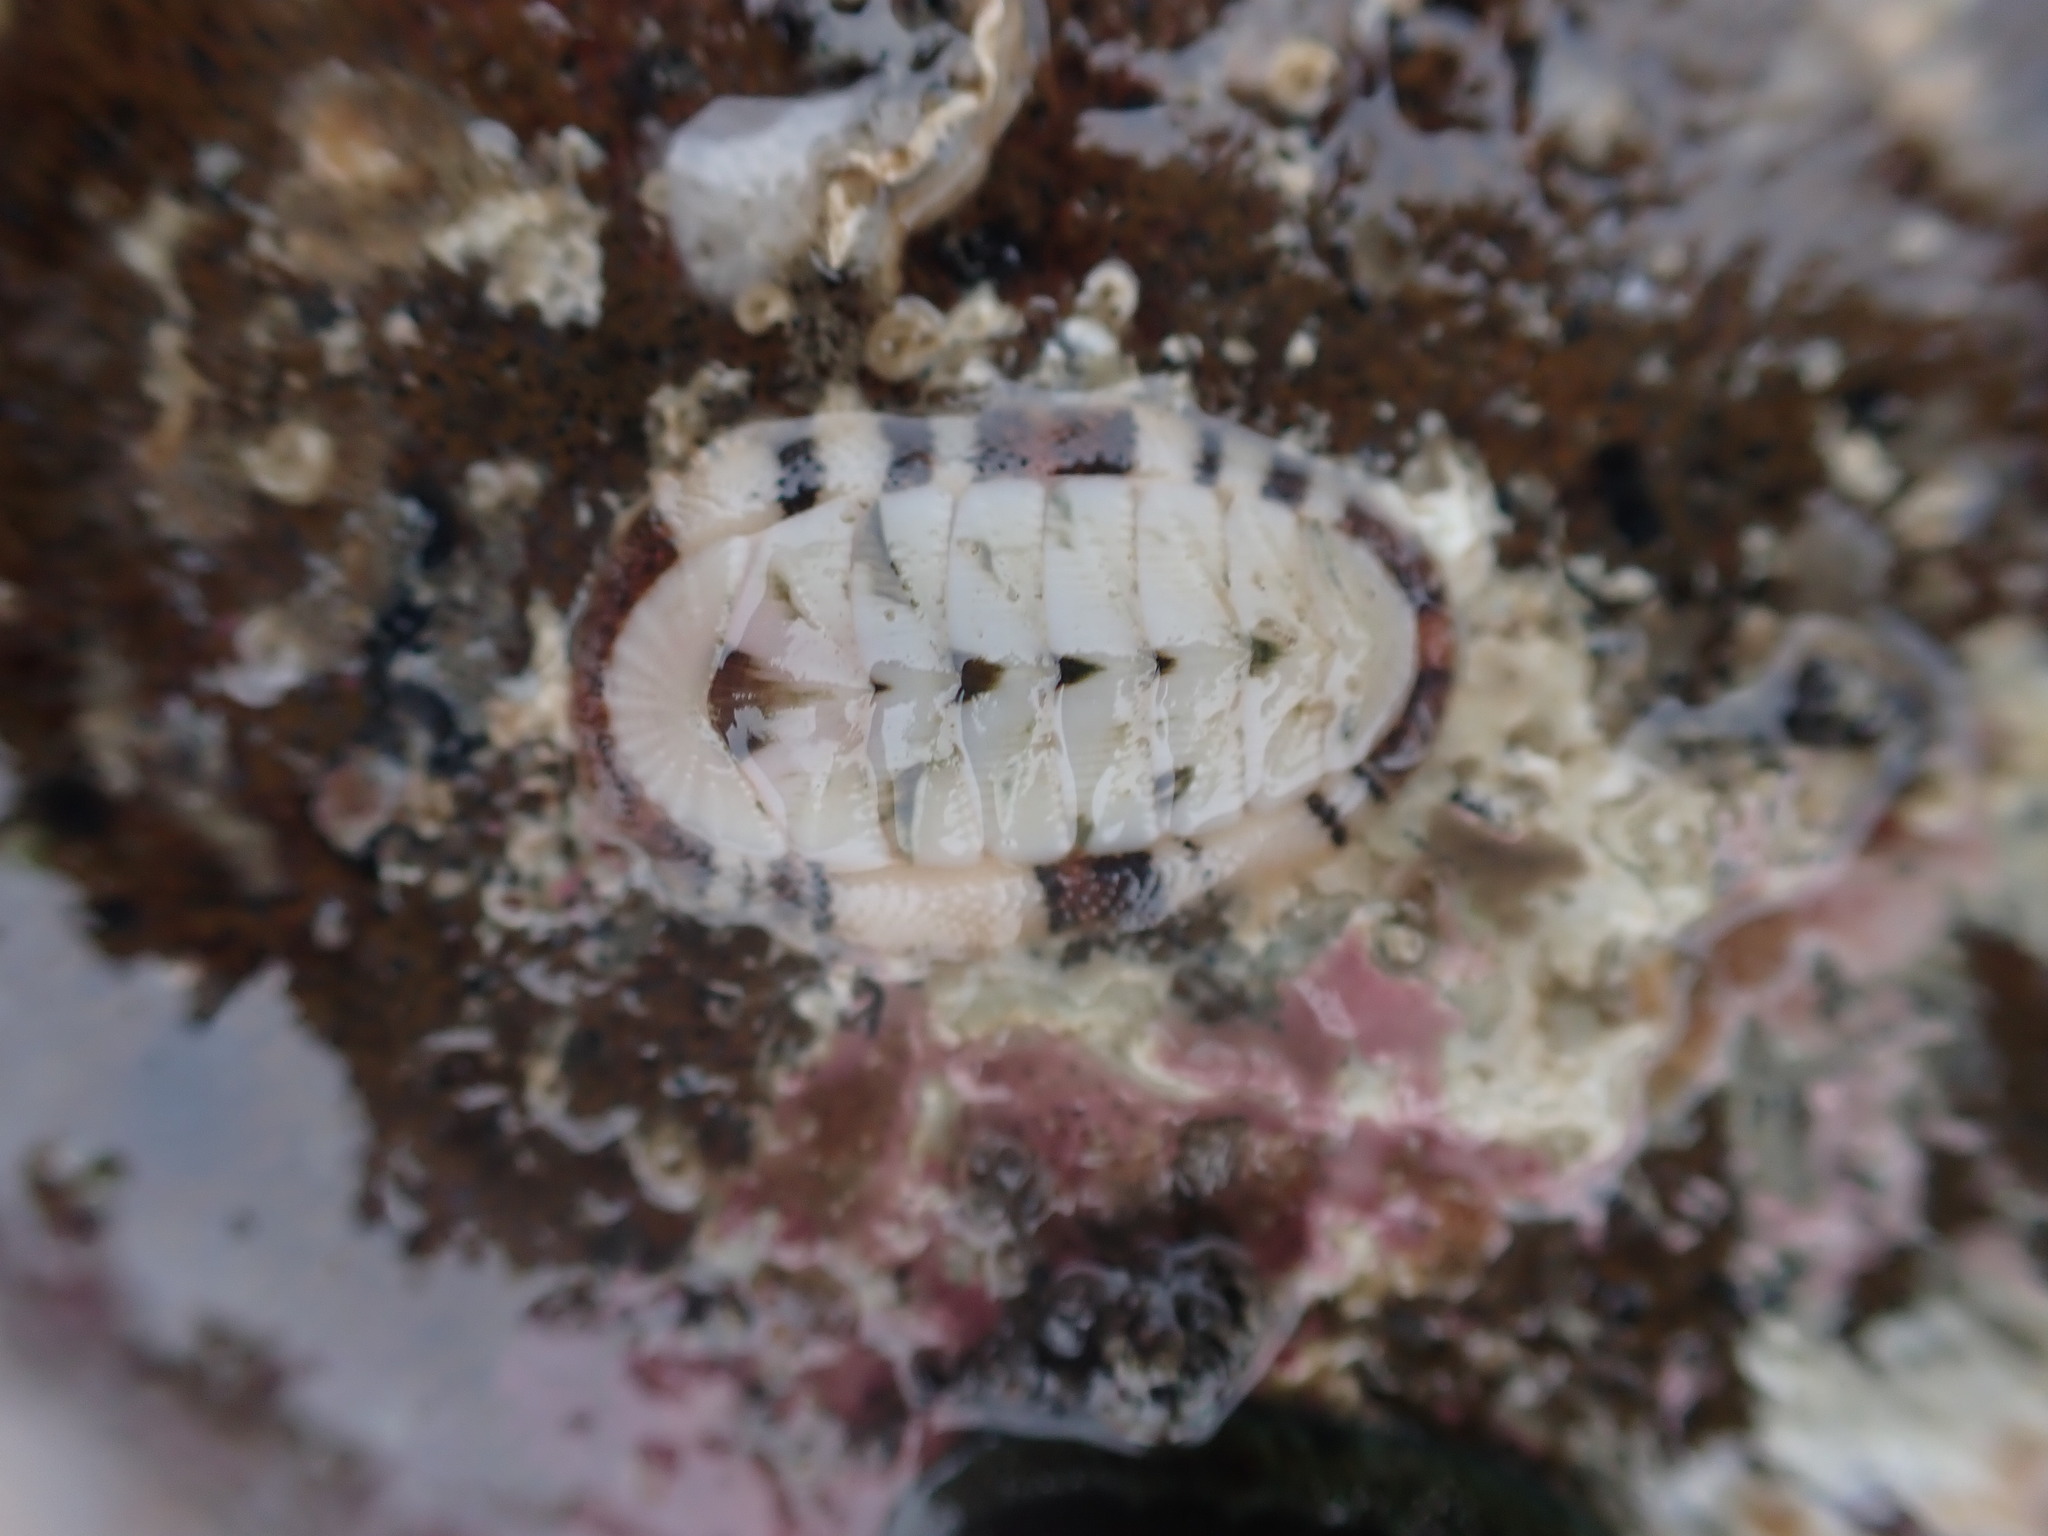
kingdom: Animalia
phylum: Mollusca
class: Polyplacophora
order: Chitonida
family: Chitonidae
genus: Rhyssoplax
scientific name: Rhyssoplax aerea
